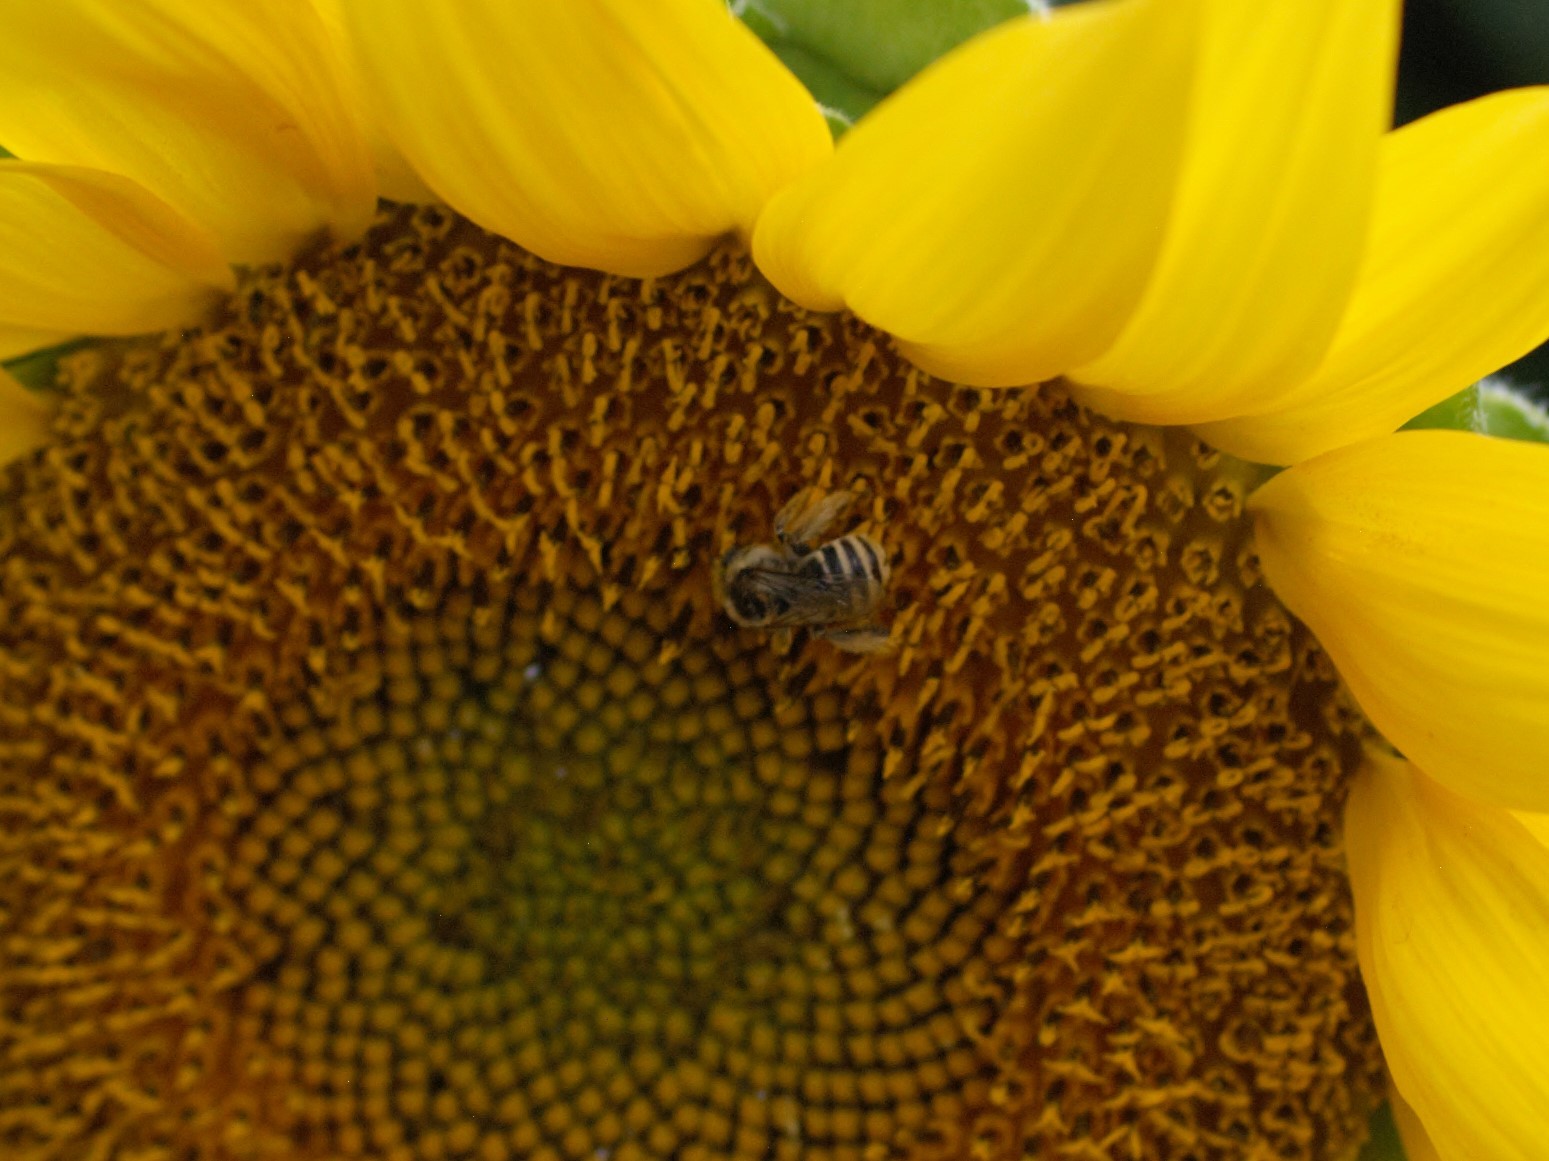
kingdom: Animalia
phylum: Arthropoda
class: Insecta
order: Hymenoptera
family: Apidae
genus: Melissodes
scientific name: Melissodes
